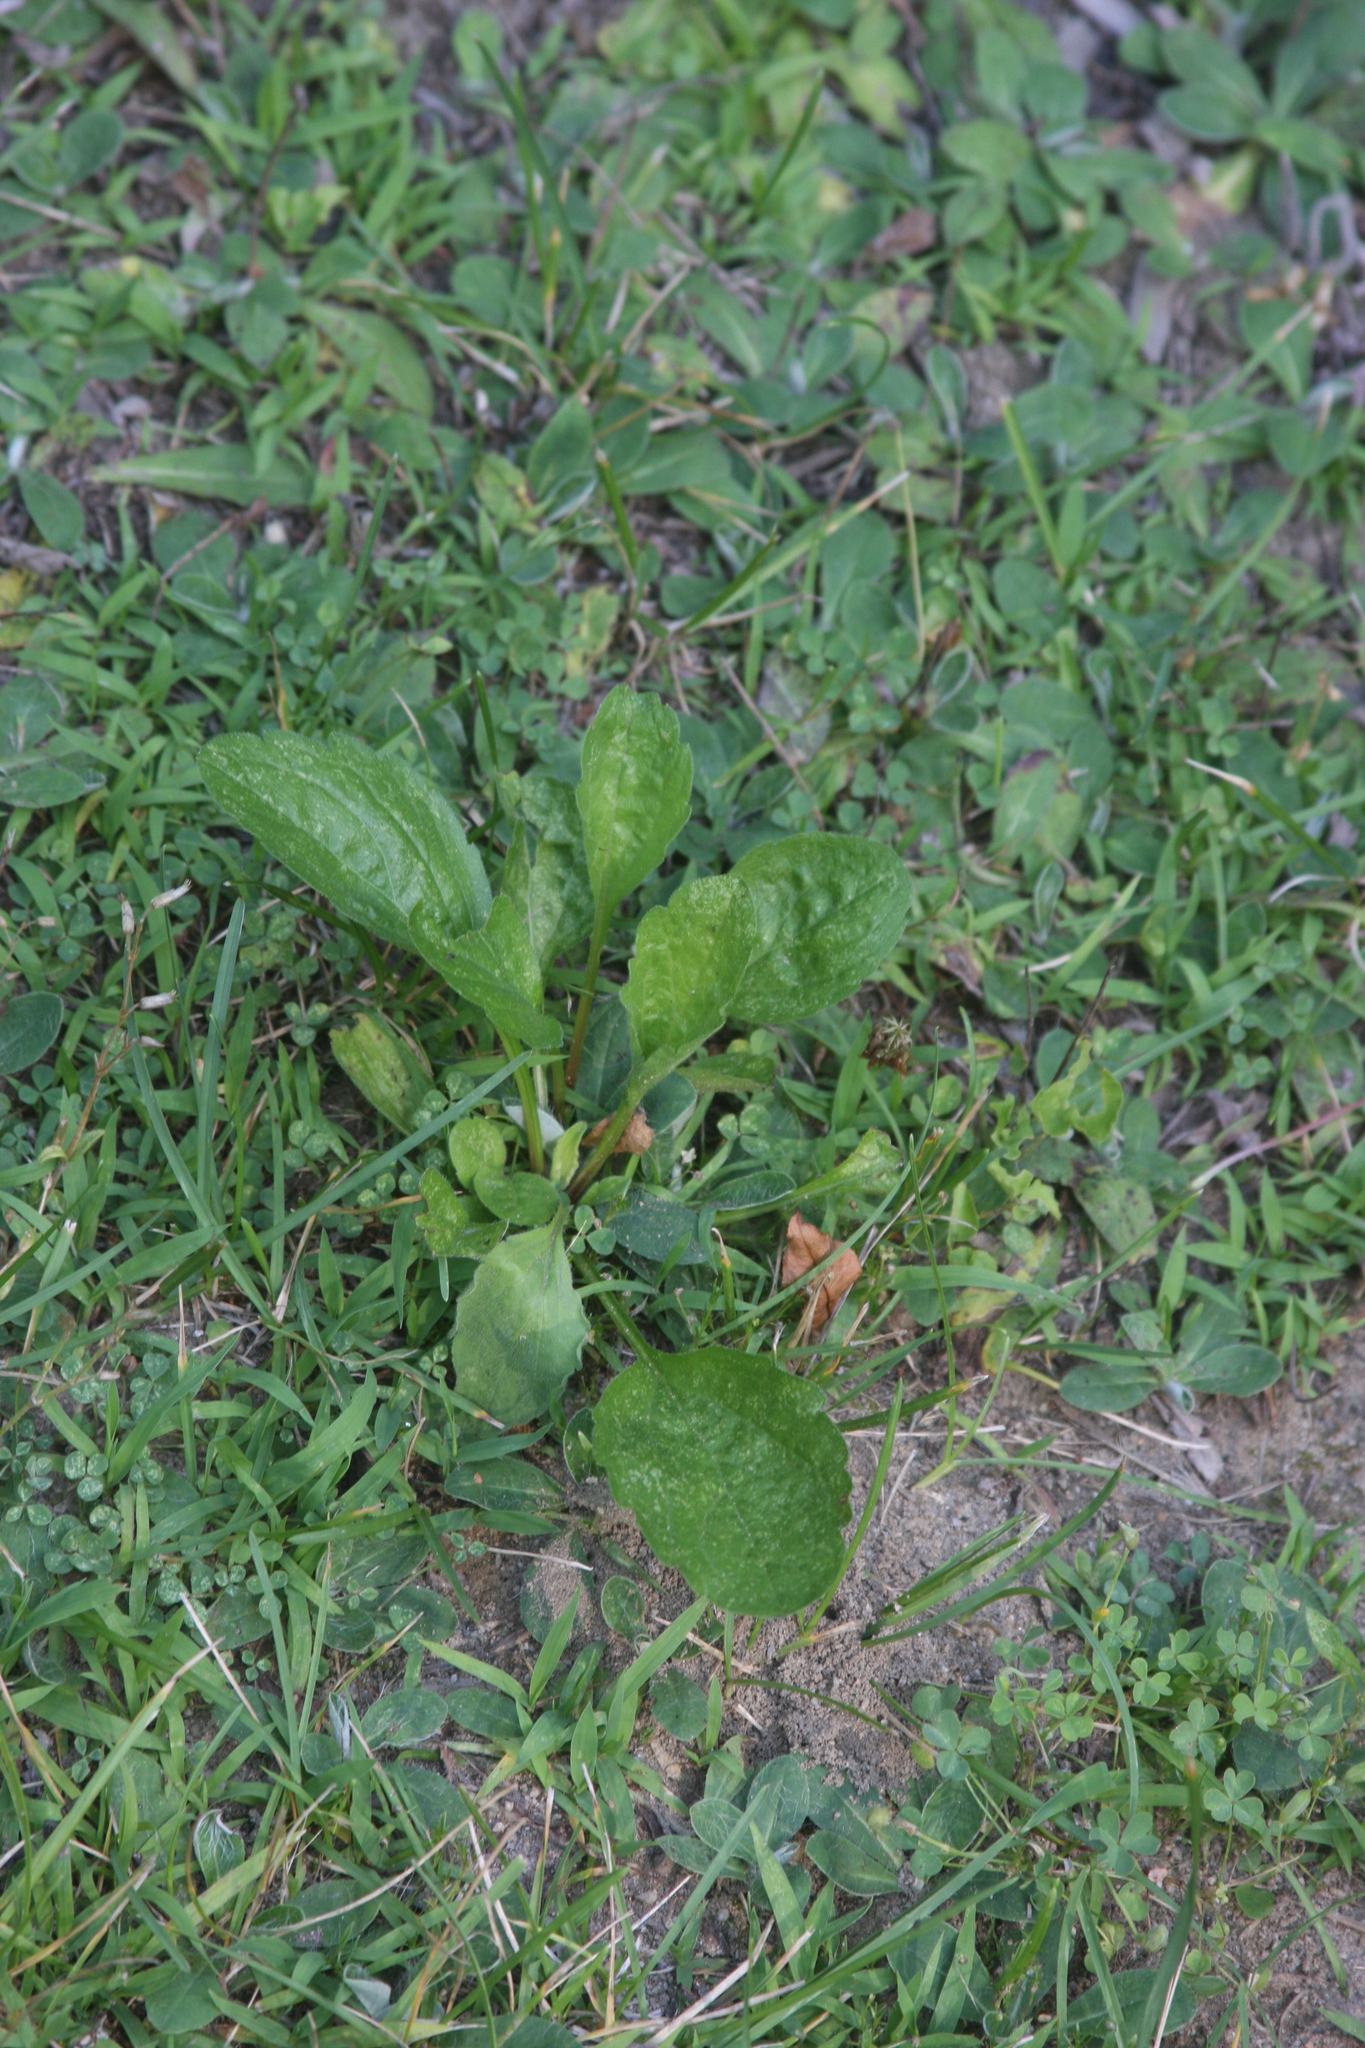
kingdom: Plantae
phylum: Tracheophyta
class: Magnoliopsida
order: Asterales
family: Asteraceae
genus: Erigeron
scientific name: Erigeron annuus
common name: Tall fleabane
